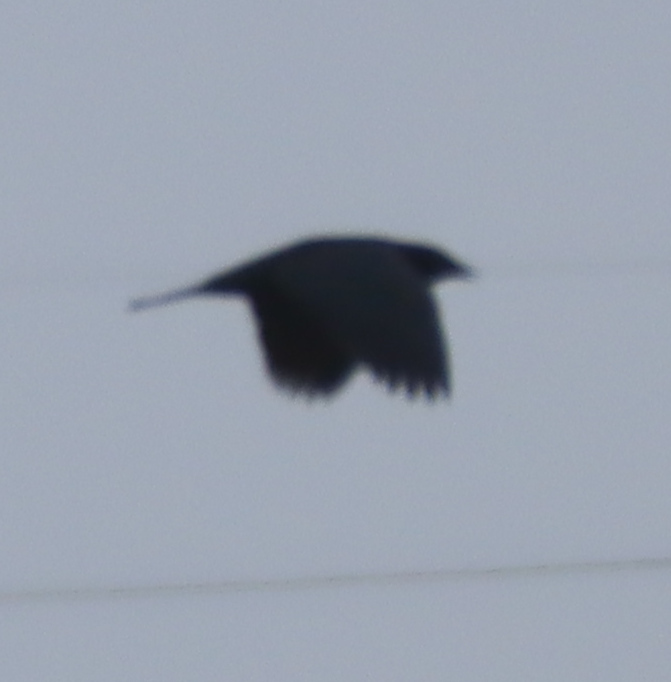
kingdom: Animalia
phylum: Chordata
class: Aves
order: Passeriformes
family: Corvidae
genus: Corvus
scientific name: Corvus brachyrhynchos
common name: American crow
